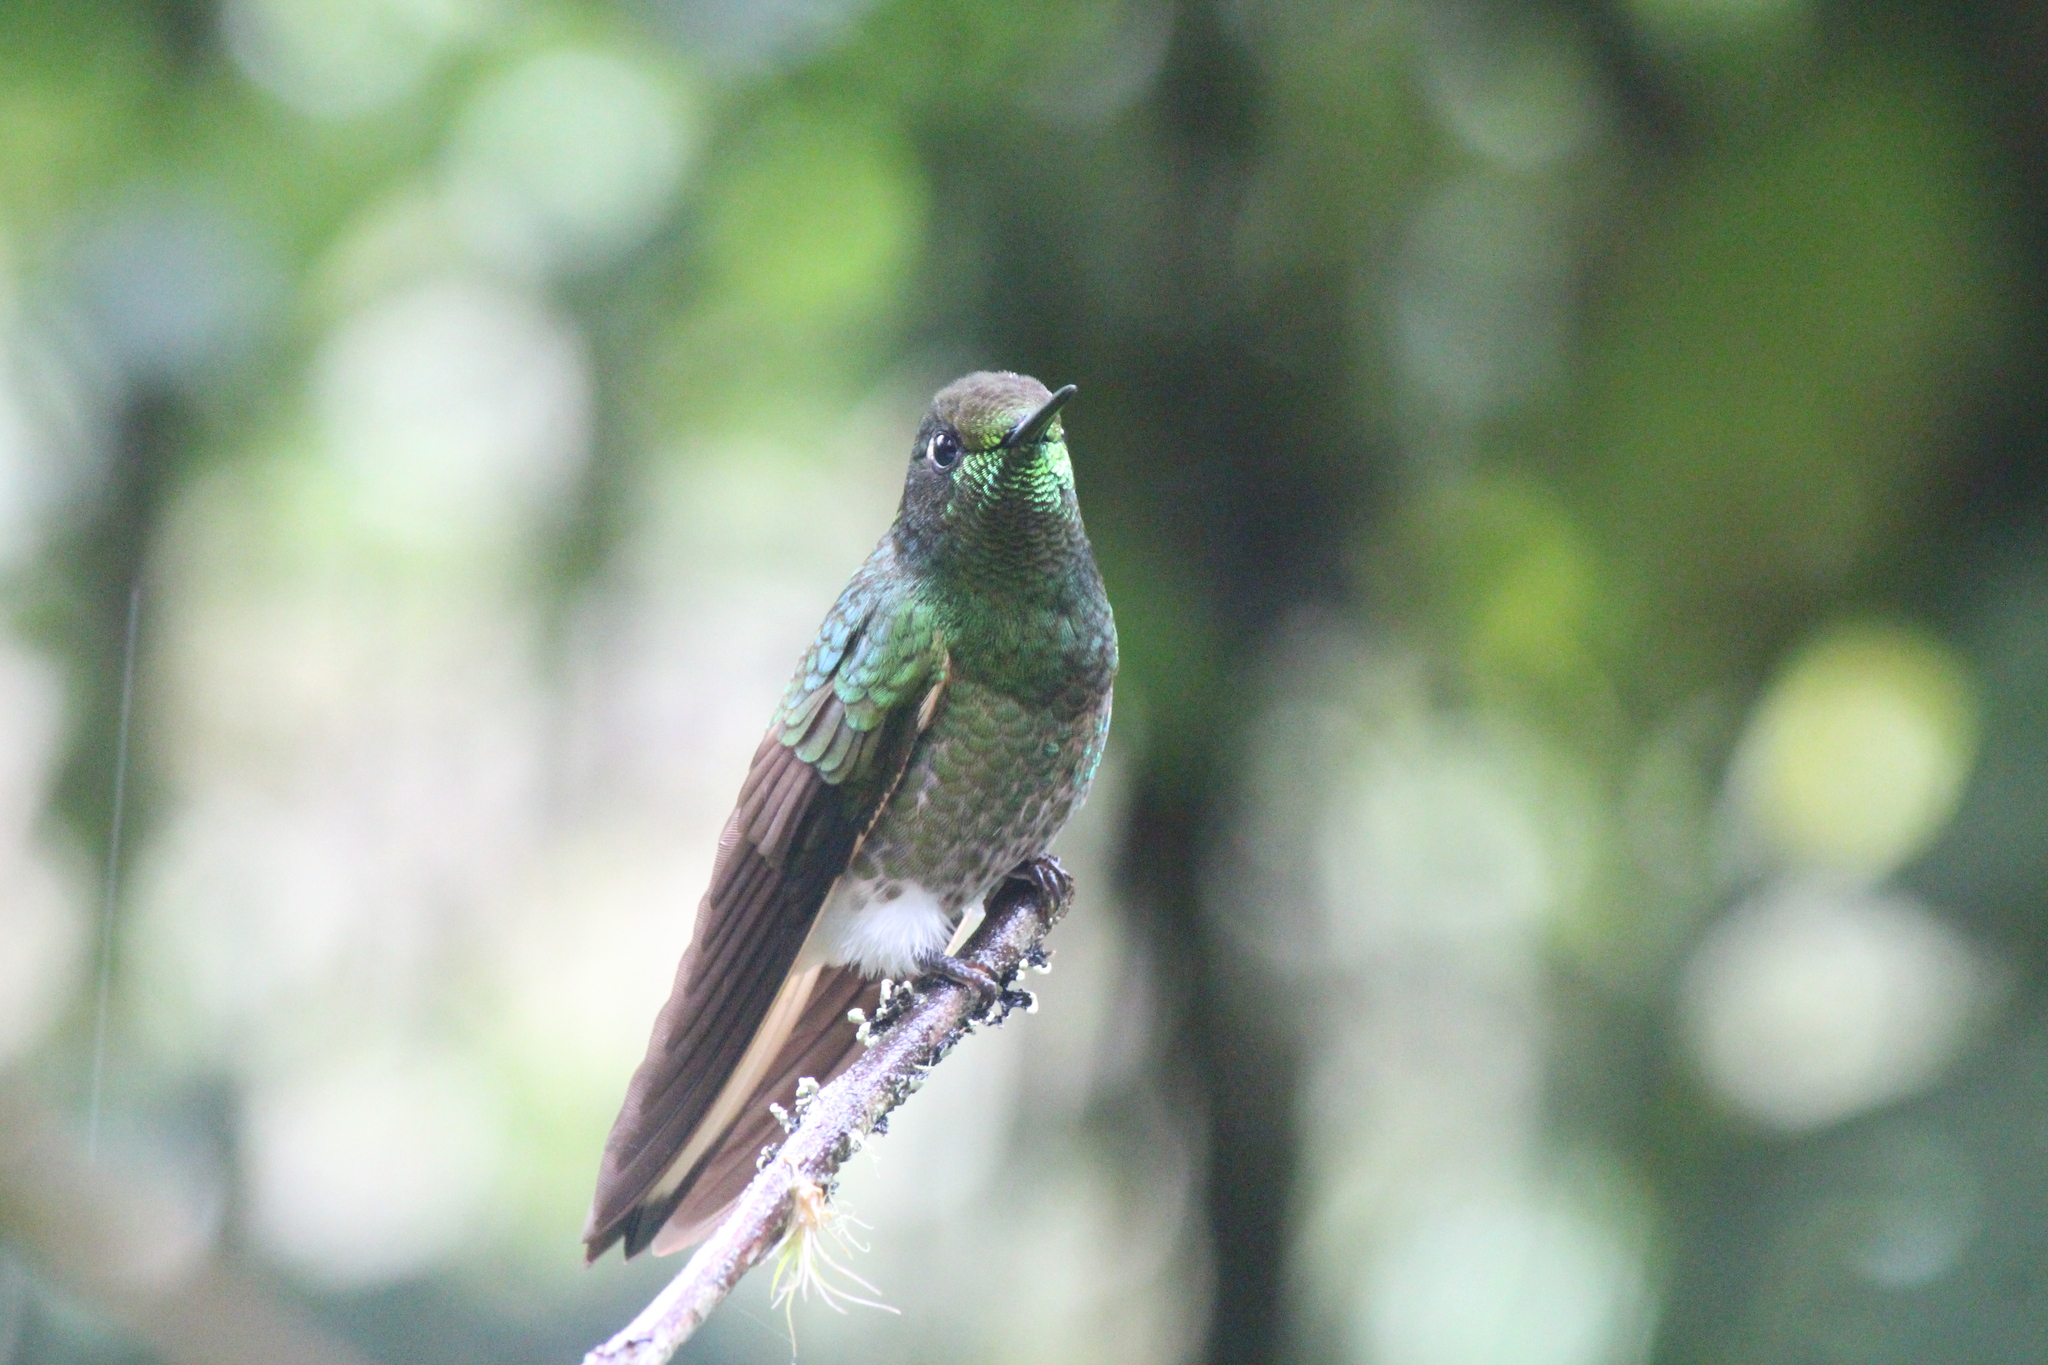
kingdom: Animalia
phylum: Chordata
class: Aves
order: Apodiformes
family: Trochilidae
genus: Boissonneaua
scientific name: Boissonneaua flavescens
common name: Buff-tailed coronet
